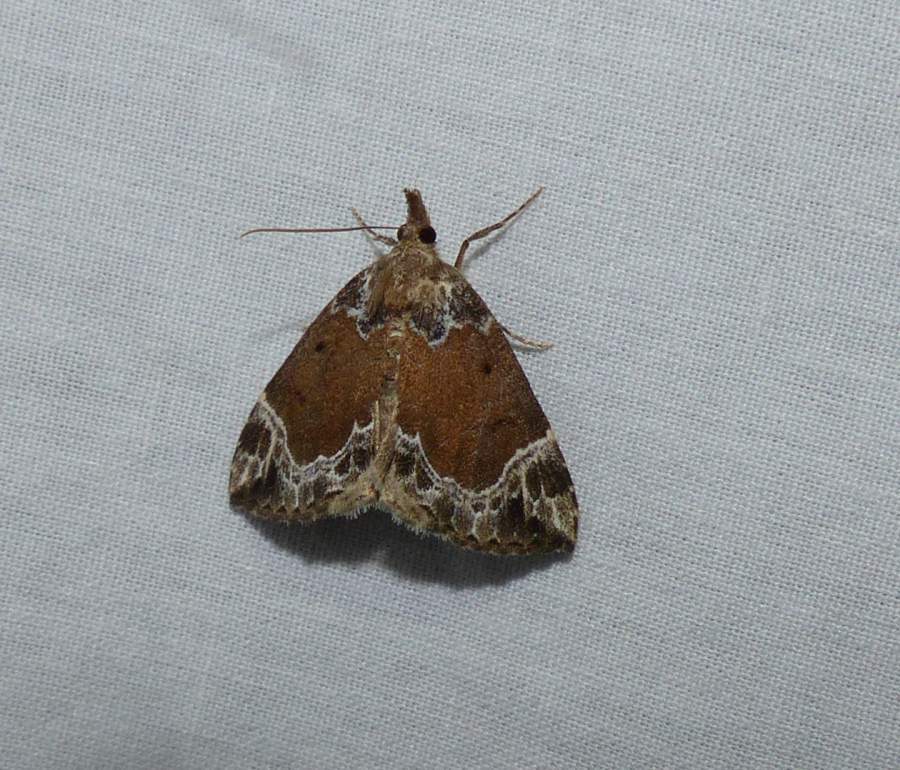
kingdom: Animalia
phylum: Arthropoda
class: Insecta
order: Lepidoptera
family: Erebidae
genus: Hypena
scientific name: Hypena abalienalis
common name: White-lined snout
